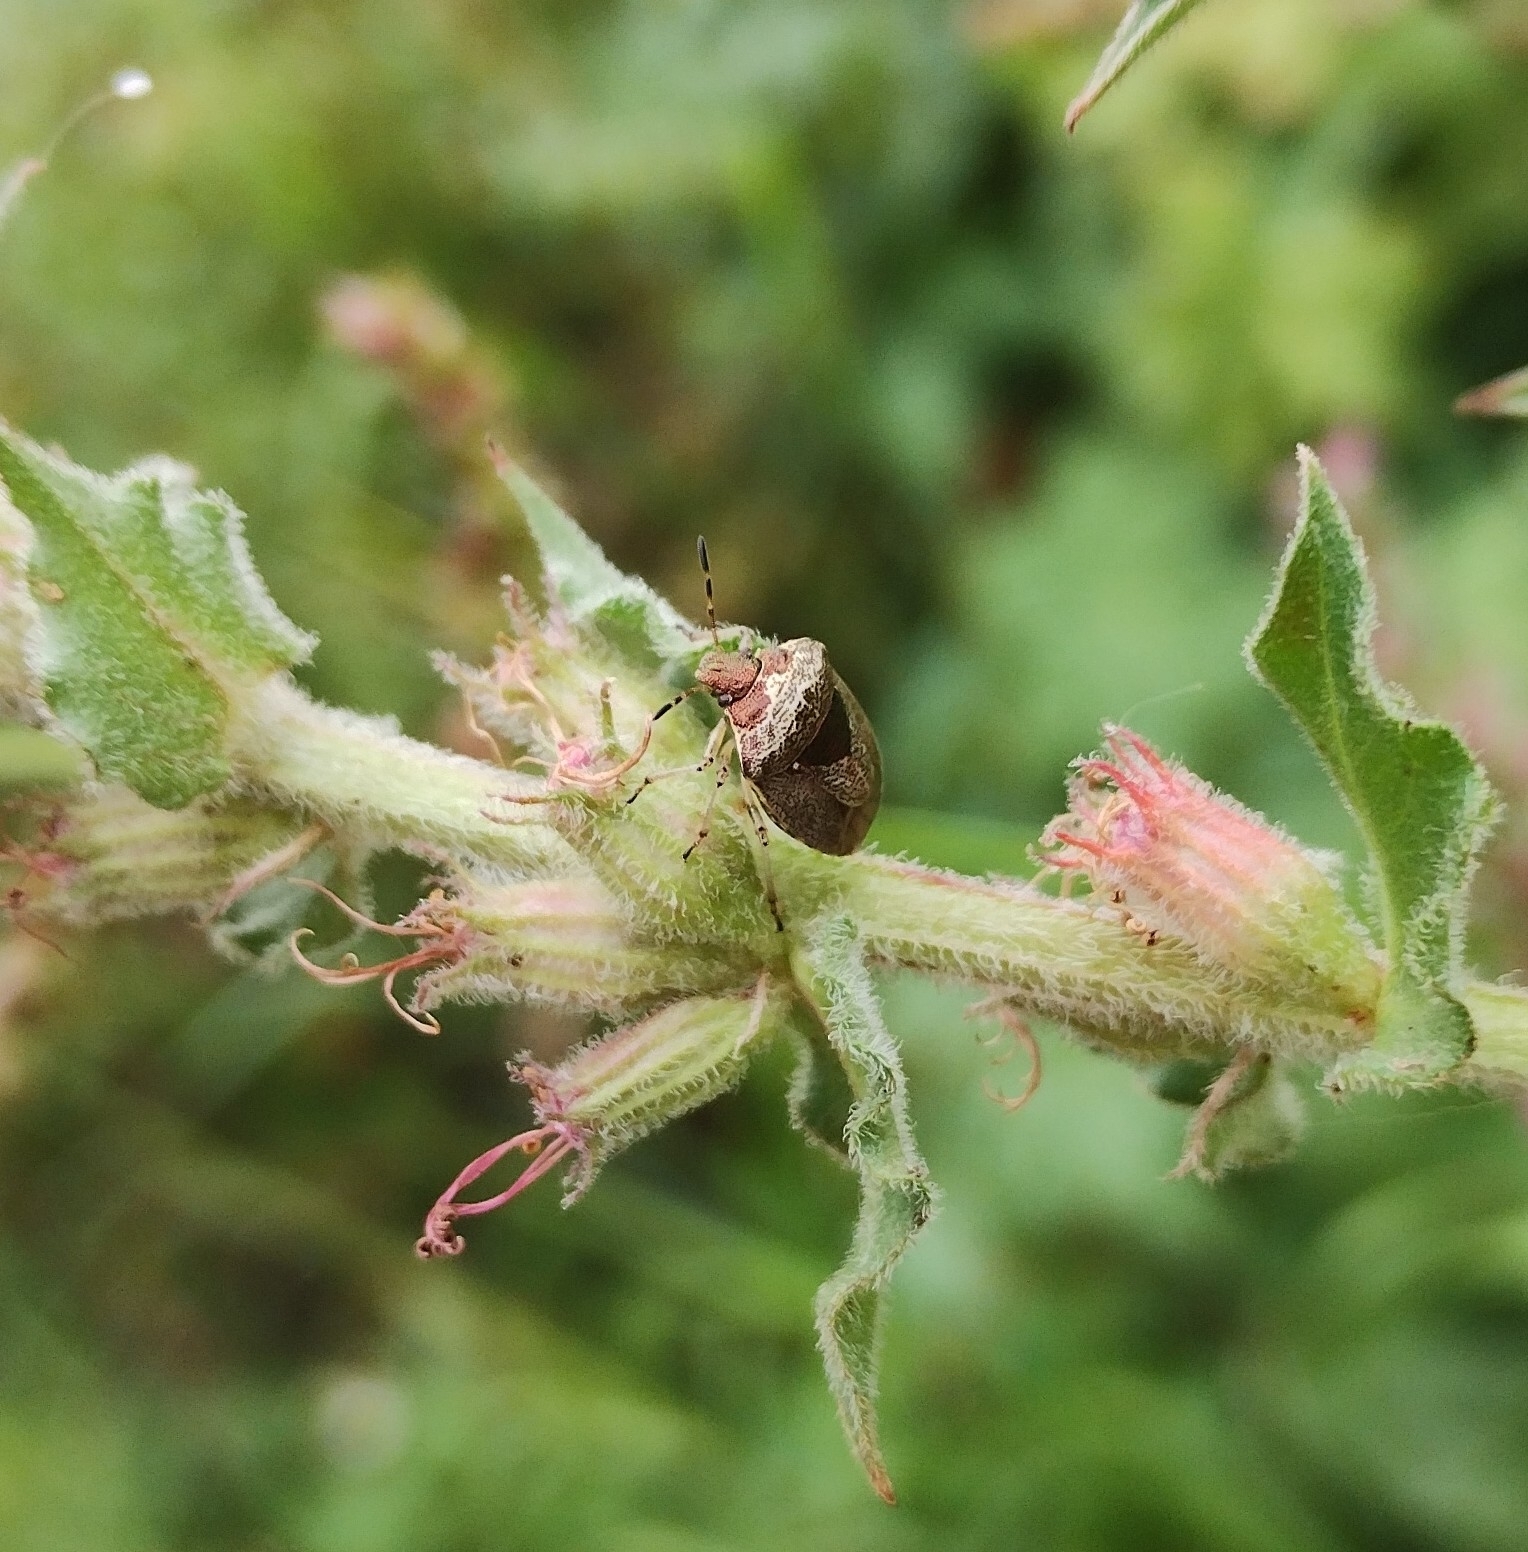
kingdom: Animalia
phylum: Arthropoda
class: Insecta
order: Hemiptera
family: Pentatomidae
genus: Eysarcoris
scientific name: Eysarcoris venustissimus
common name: Woundwort shieldbug
